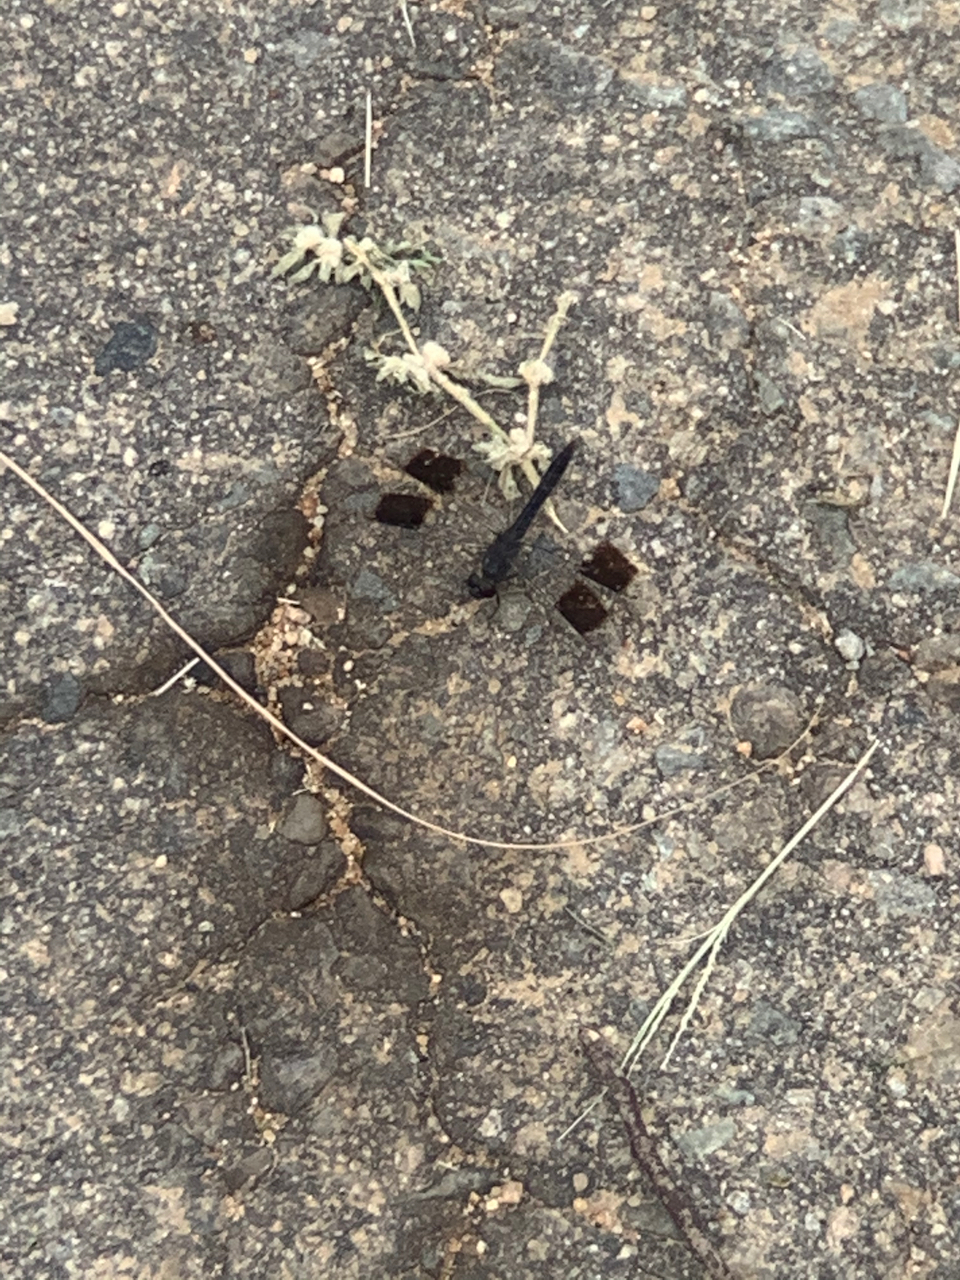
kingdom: Animalia
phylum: Arthropoda
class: Insecta
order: Odonata
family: Libellulidae
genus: Brachythemis
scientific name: Brachythemis leucosticta
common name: Banded groundling
